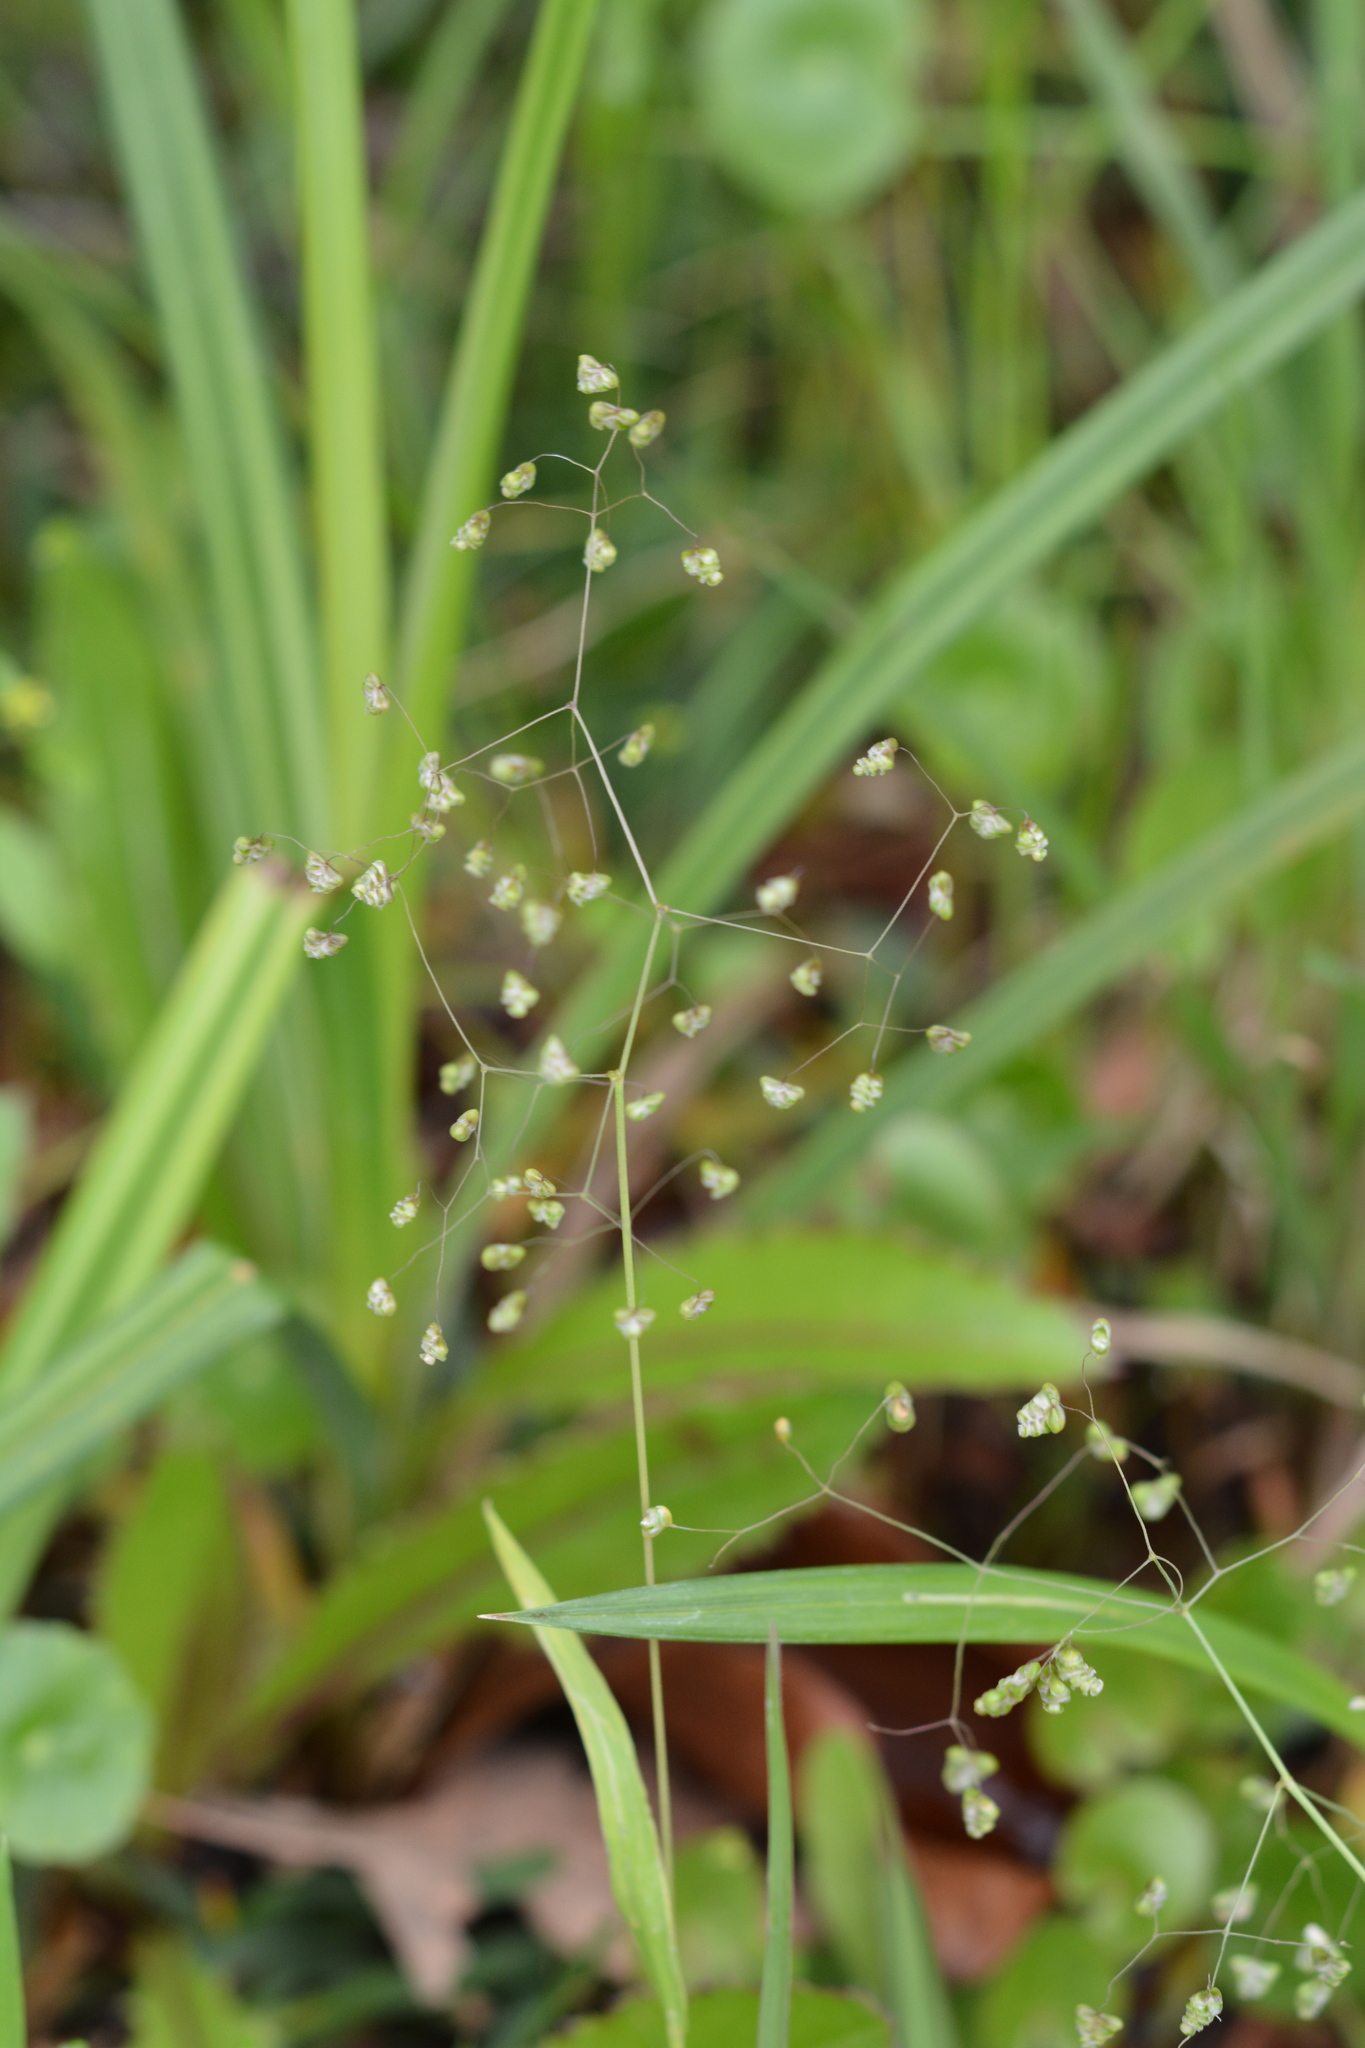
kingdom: Plantae
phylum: Tracheophyta
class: Liliopsida
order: Poales
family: Poaceae
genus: Briza
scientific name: Briza minor
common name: Lesser quaking-grass
